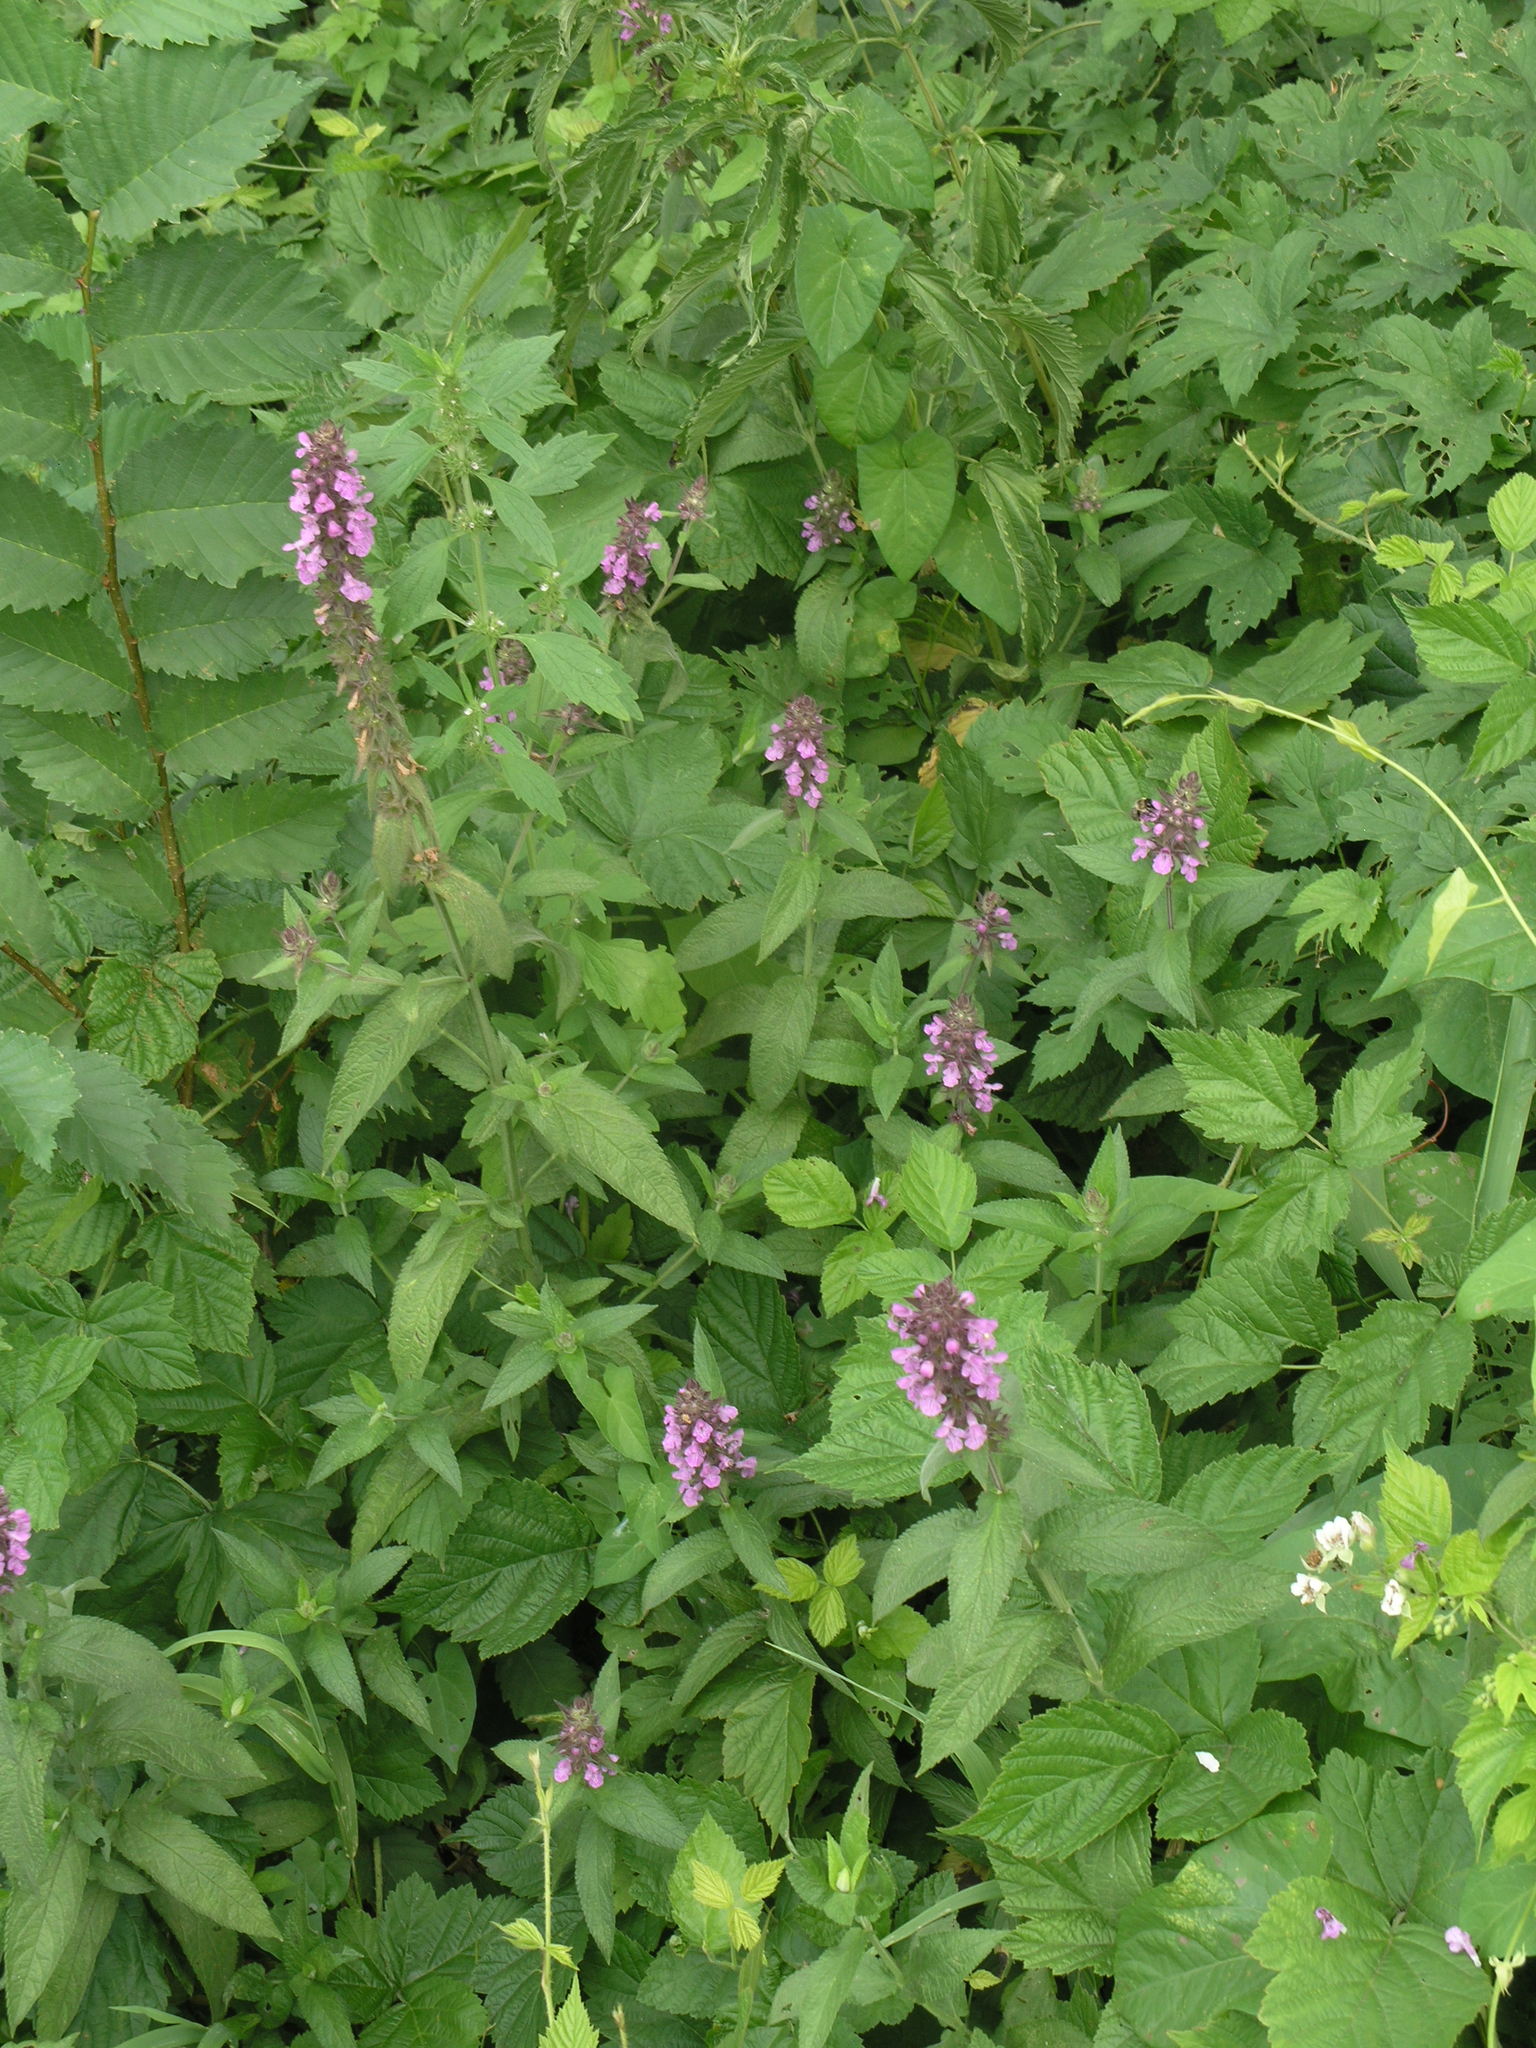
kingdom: Plantae
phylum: Tracheophyta
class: Magnoliopsida
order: Lamiales
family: Lamiaceae
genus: Stachys
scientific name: Stachys palustris
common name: Marsh woundwort
